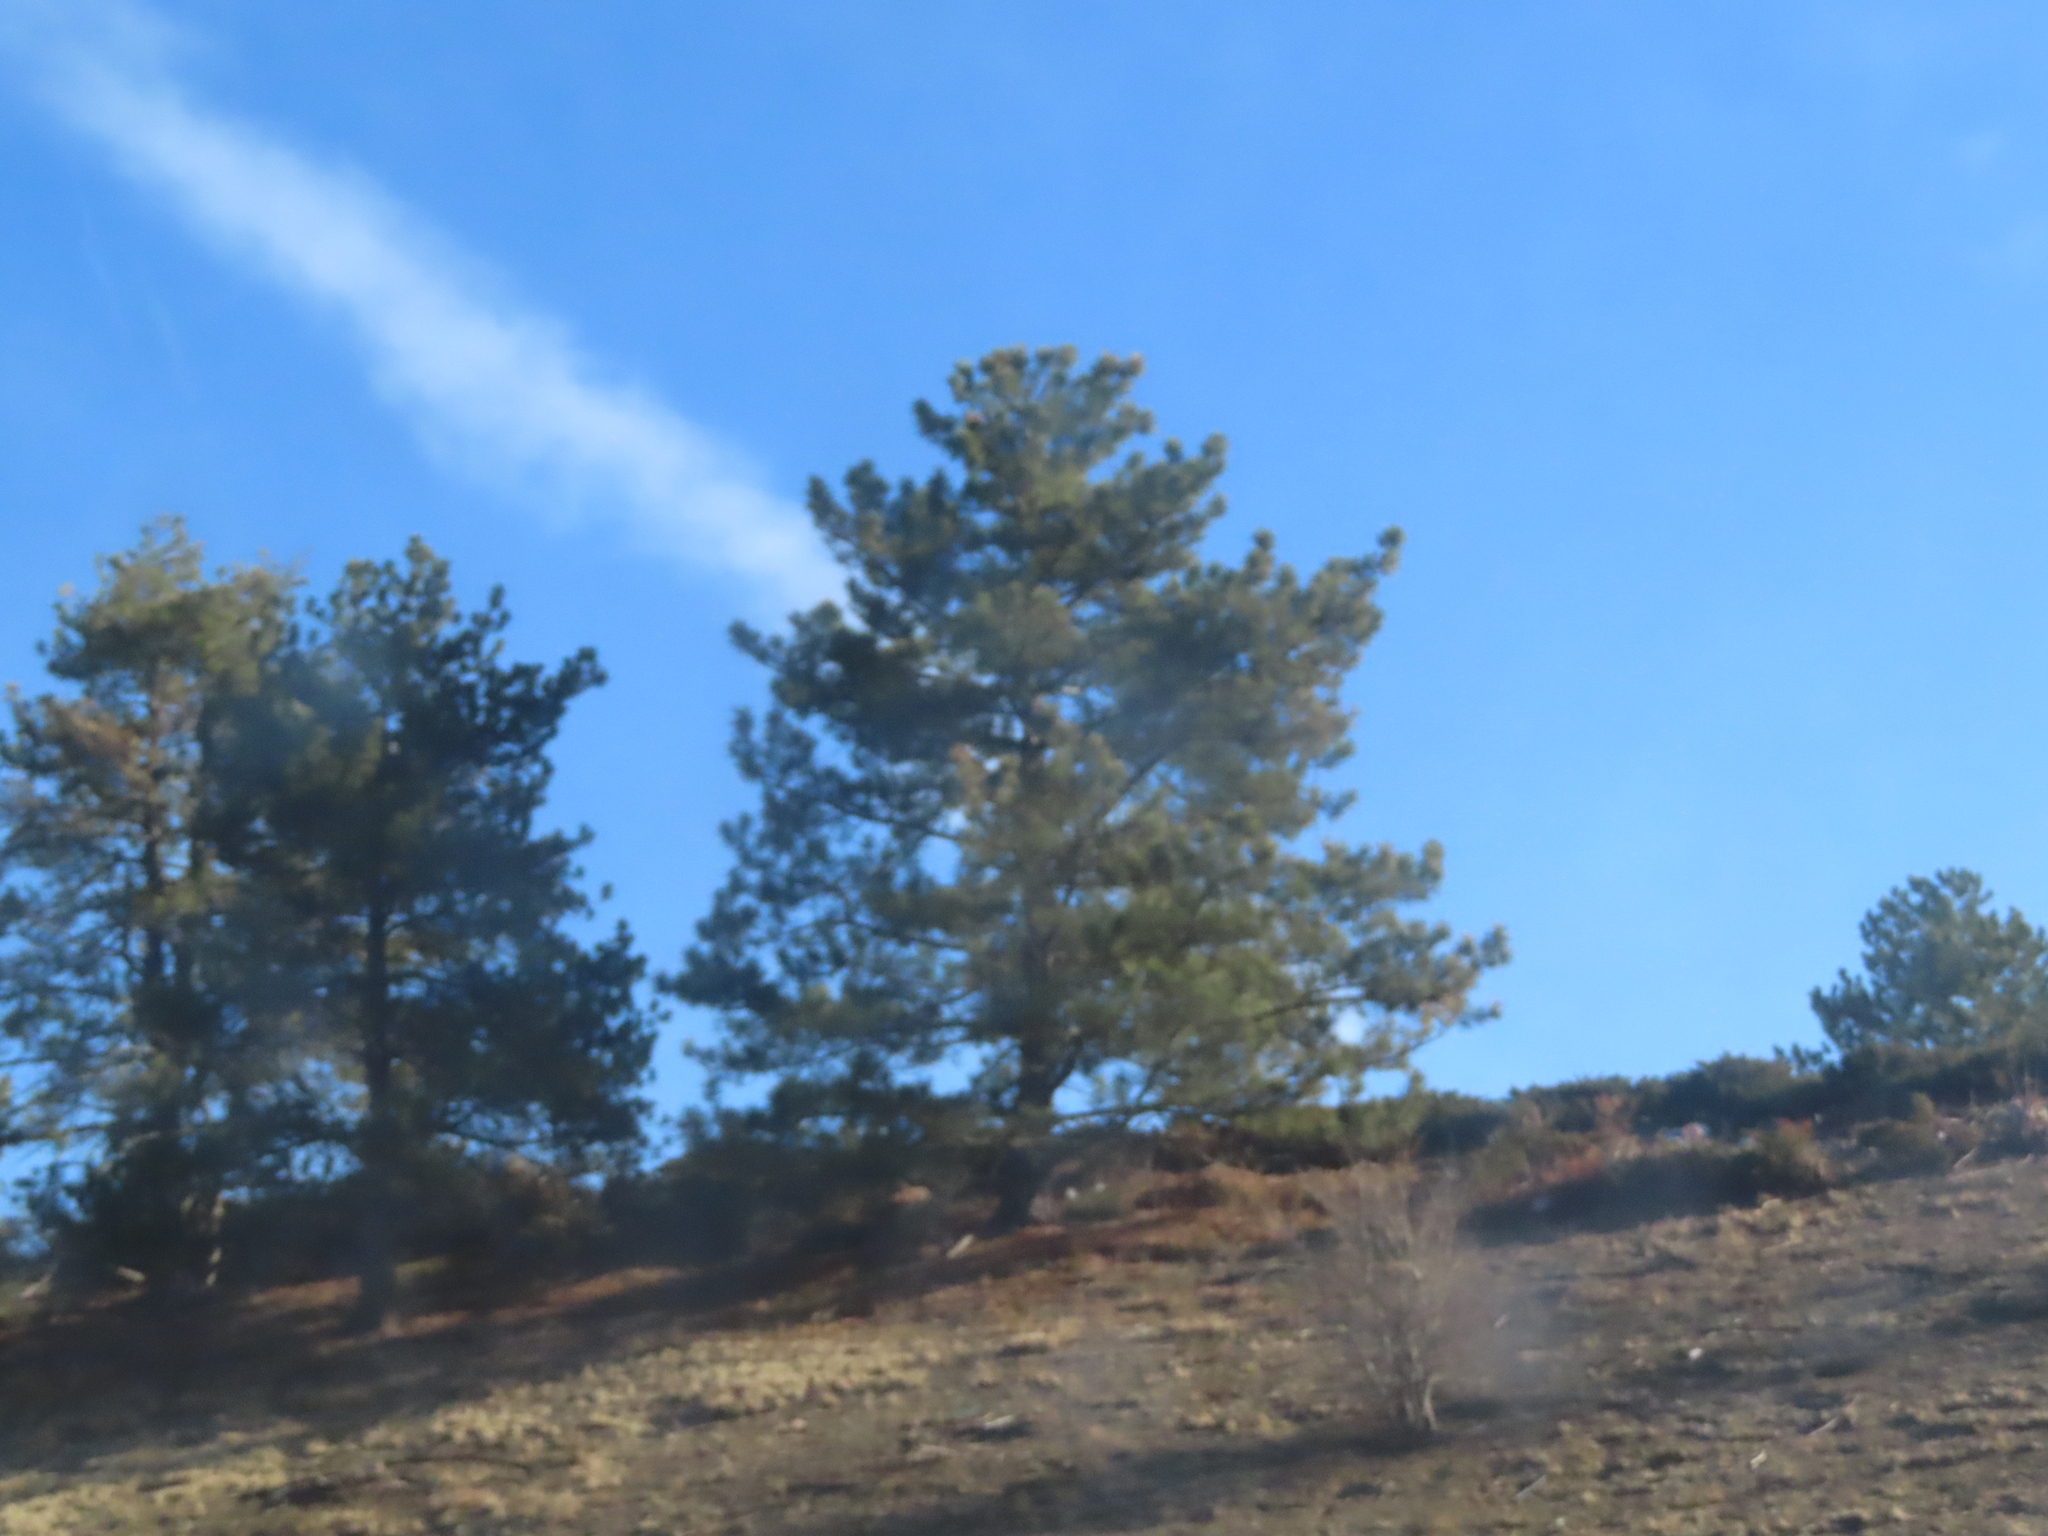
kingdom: Plantae
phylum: Tracheophyta
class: Pinopsida
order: Pinales
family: Pinaceae
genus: Pinus
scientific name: Pinus ponderosa
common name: Western yellow-pine
